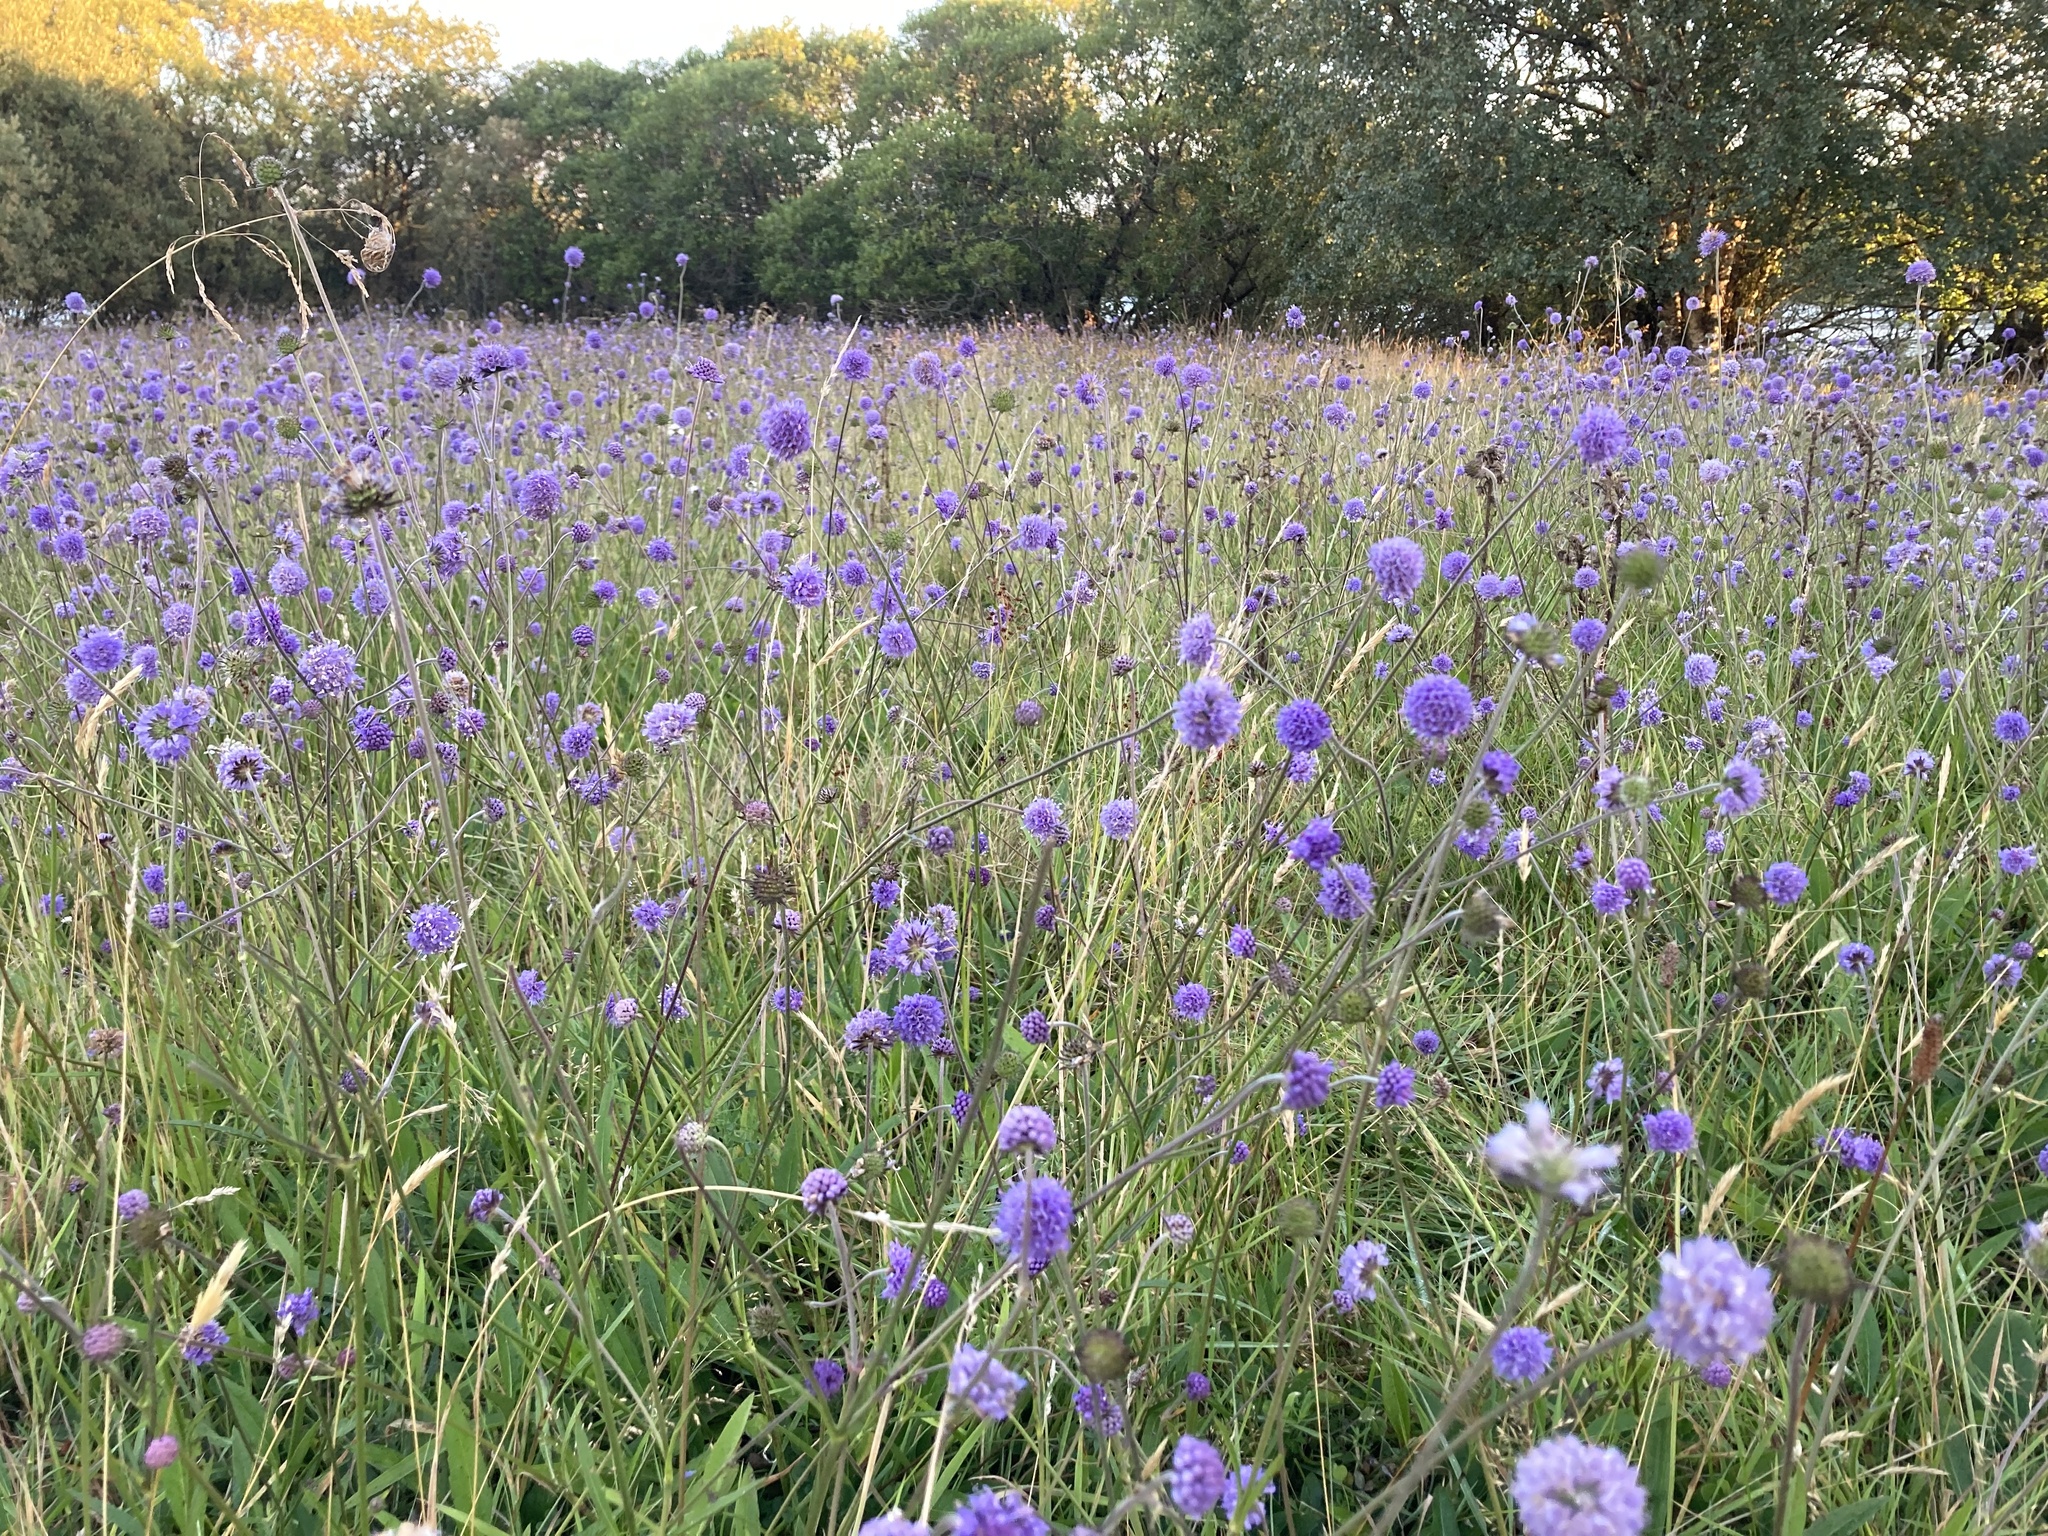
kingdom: Plantae
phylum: Tracheophyta
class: Magnoliopsida
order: Dipsacales
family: Caprifoliaceae
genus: Succisa
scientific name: Succisa pratensis
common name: Devil's-bit
